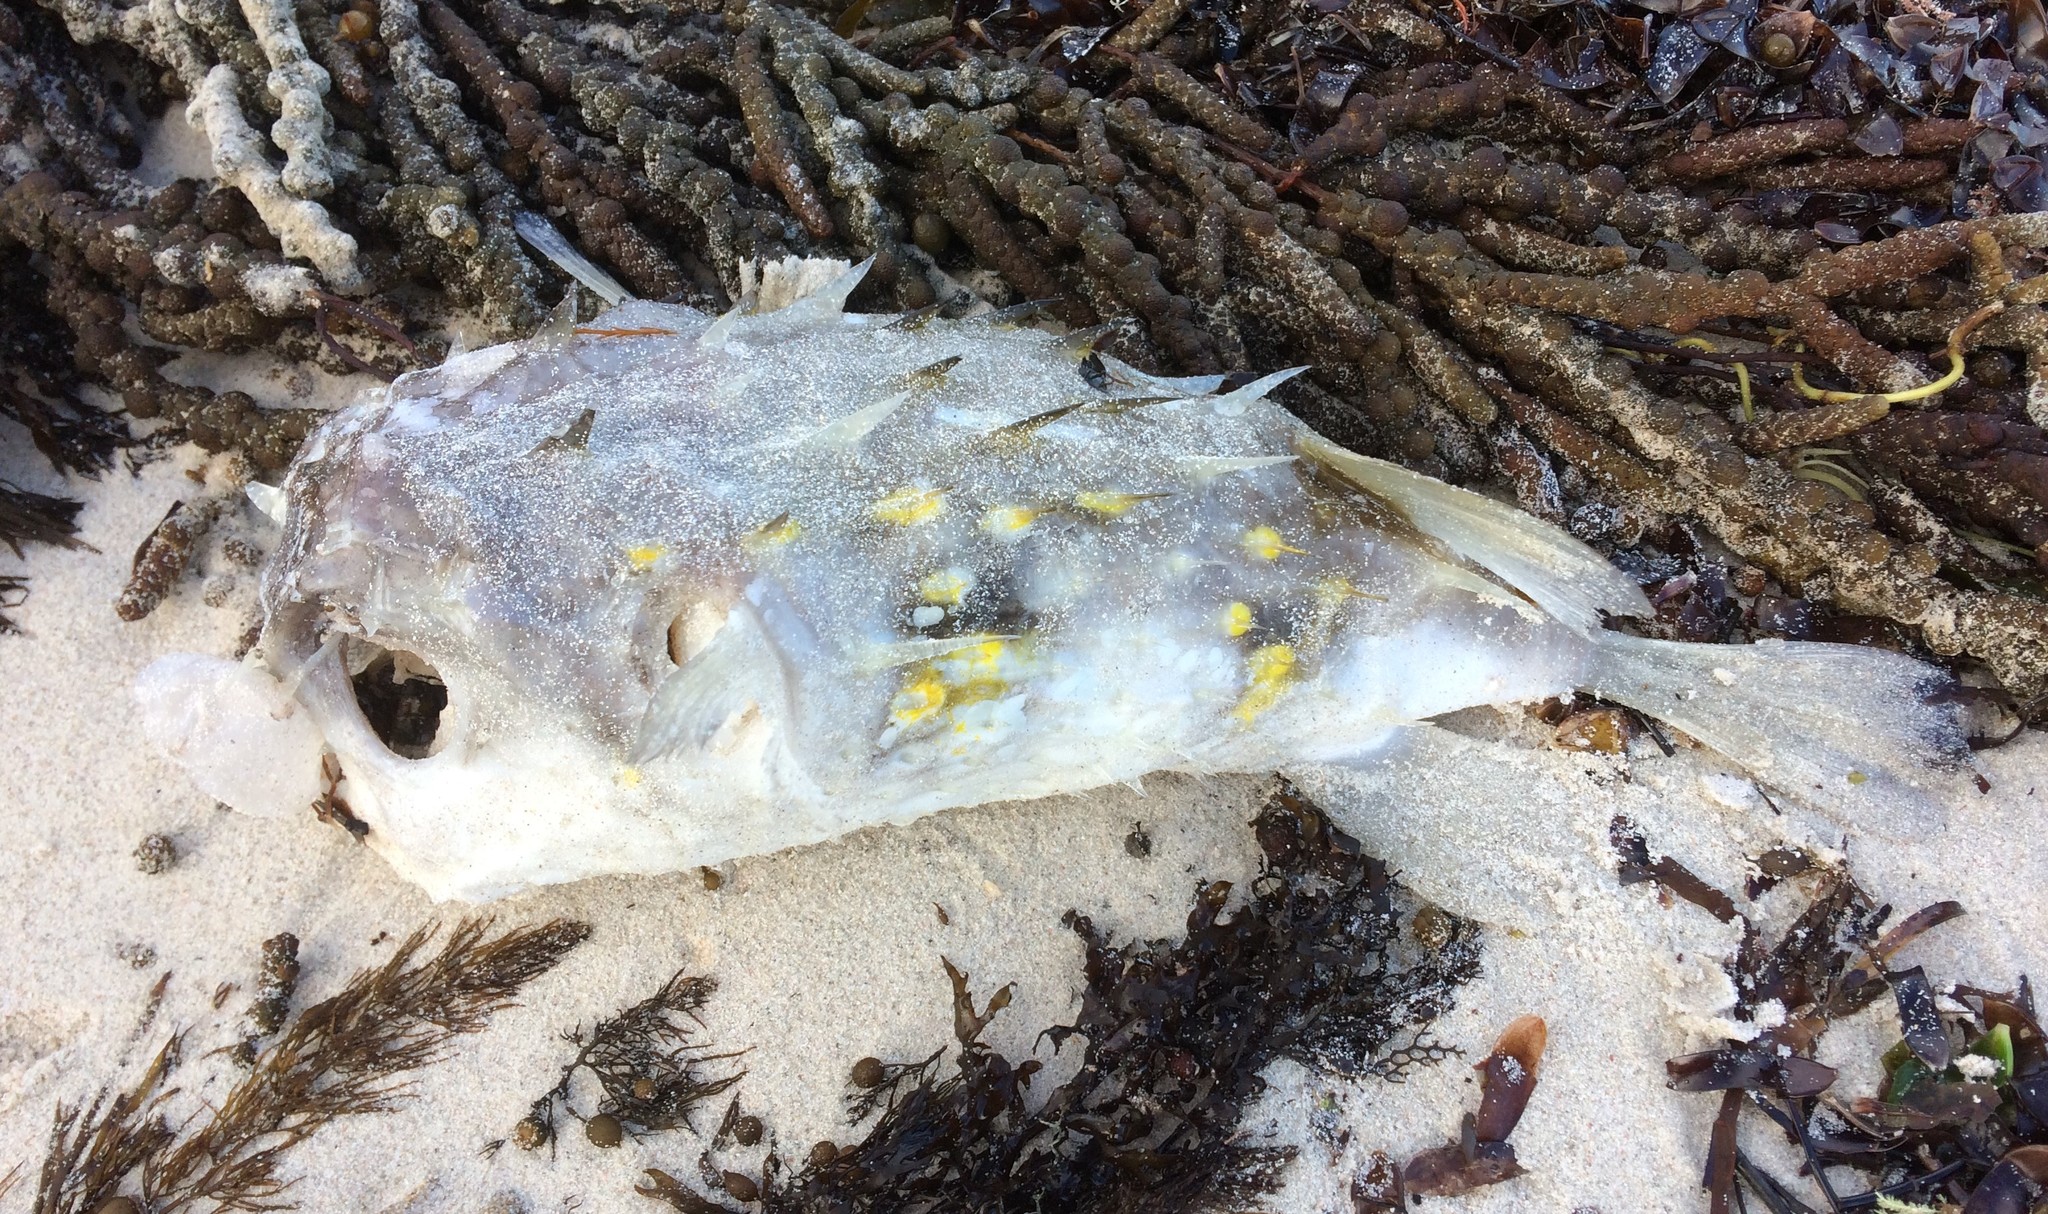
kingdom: Animalia
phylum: Chordata
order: Tetraodontiformes
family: Diodontidae
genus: Allomycterus
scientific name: Allomycterus pilatus
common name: No common name
